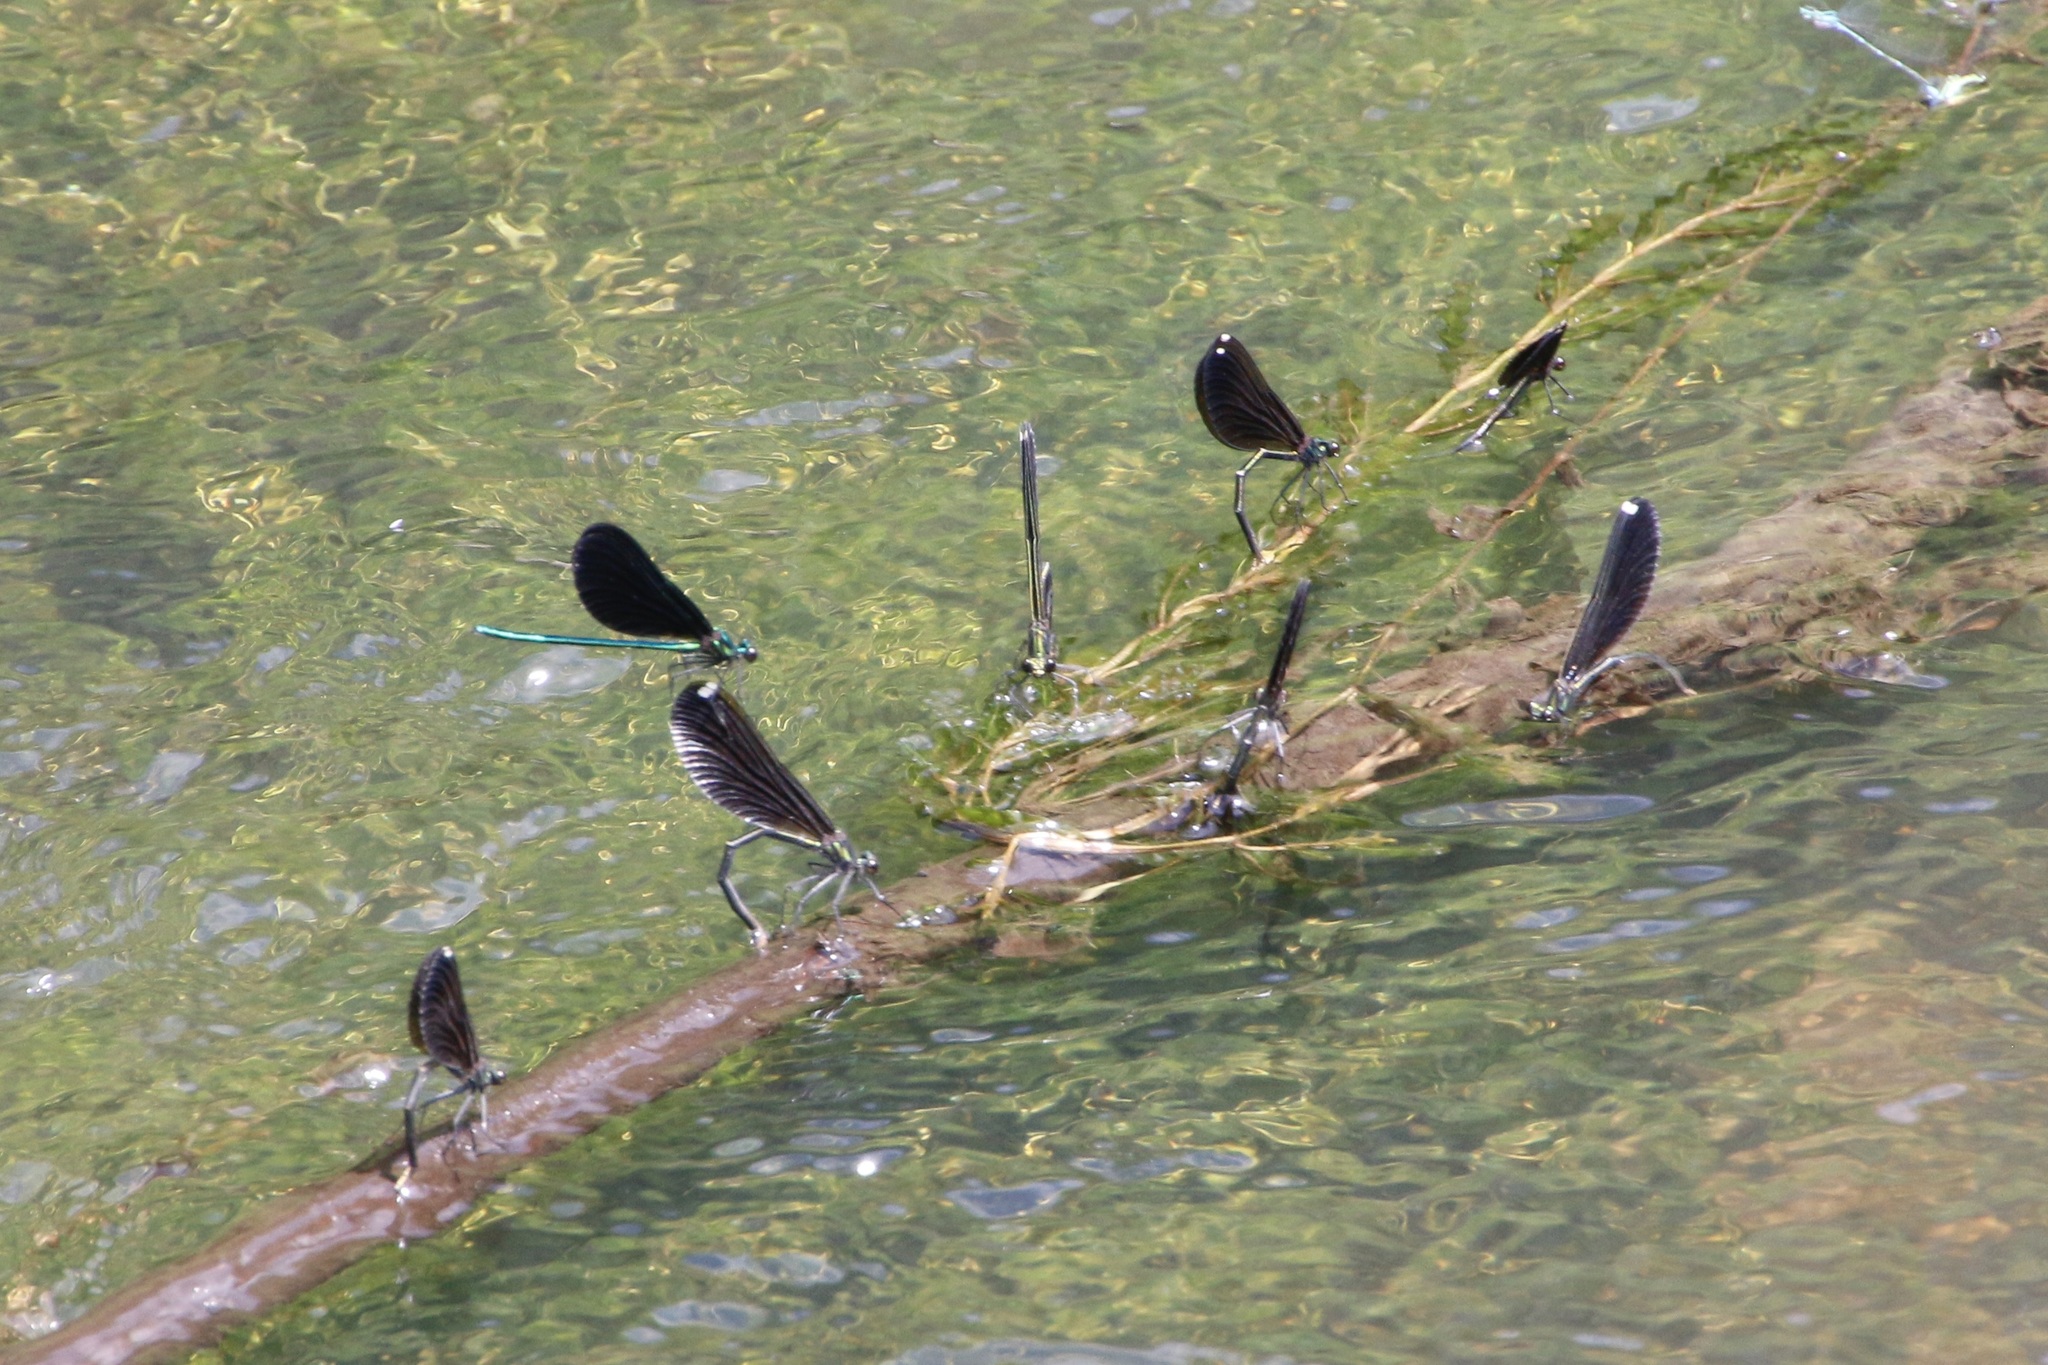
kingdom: Animalia
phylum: Arthropoda
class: Insecta
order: Odonata
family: Calopterygidae
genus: Calopteryx
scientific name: Calopteryx maculata
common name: Ebony jewelwing
